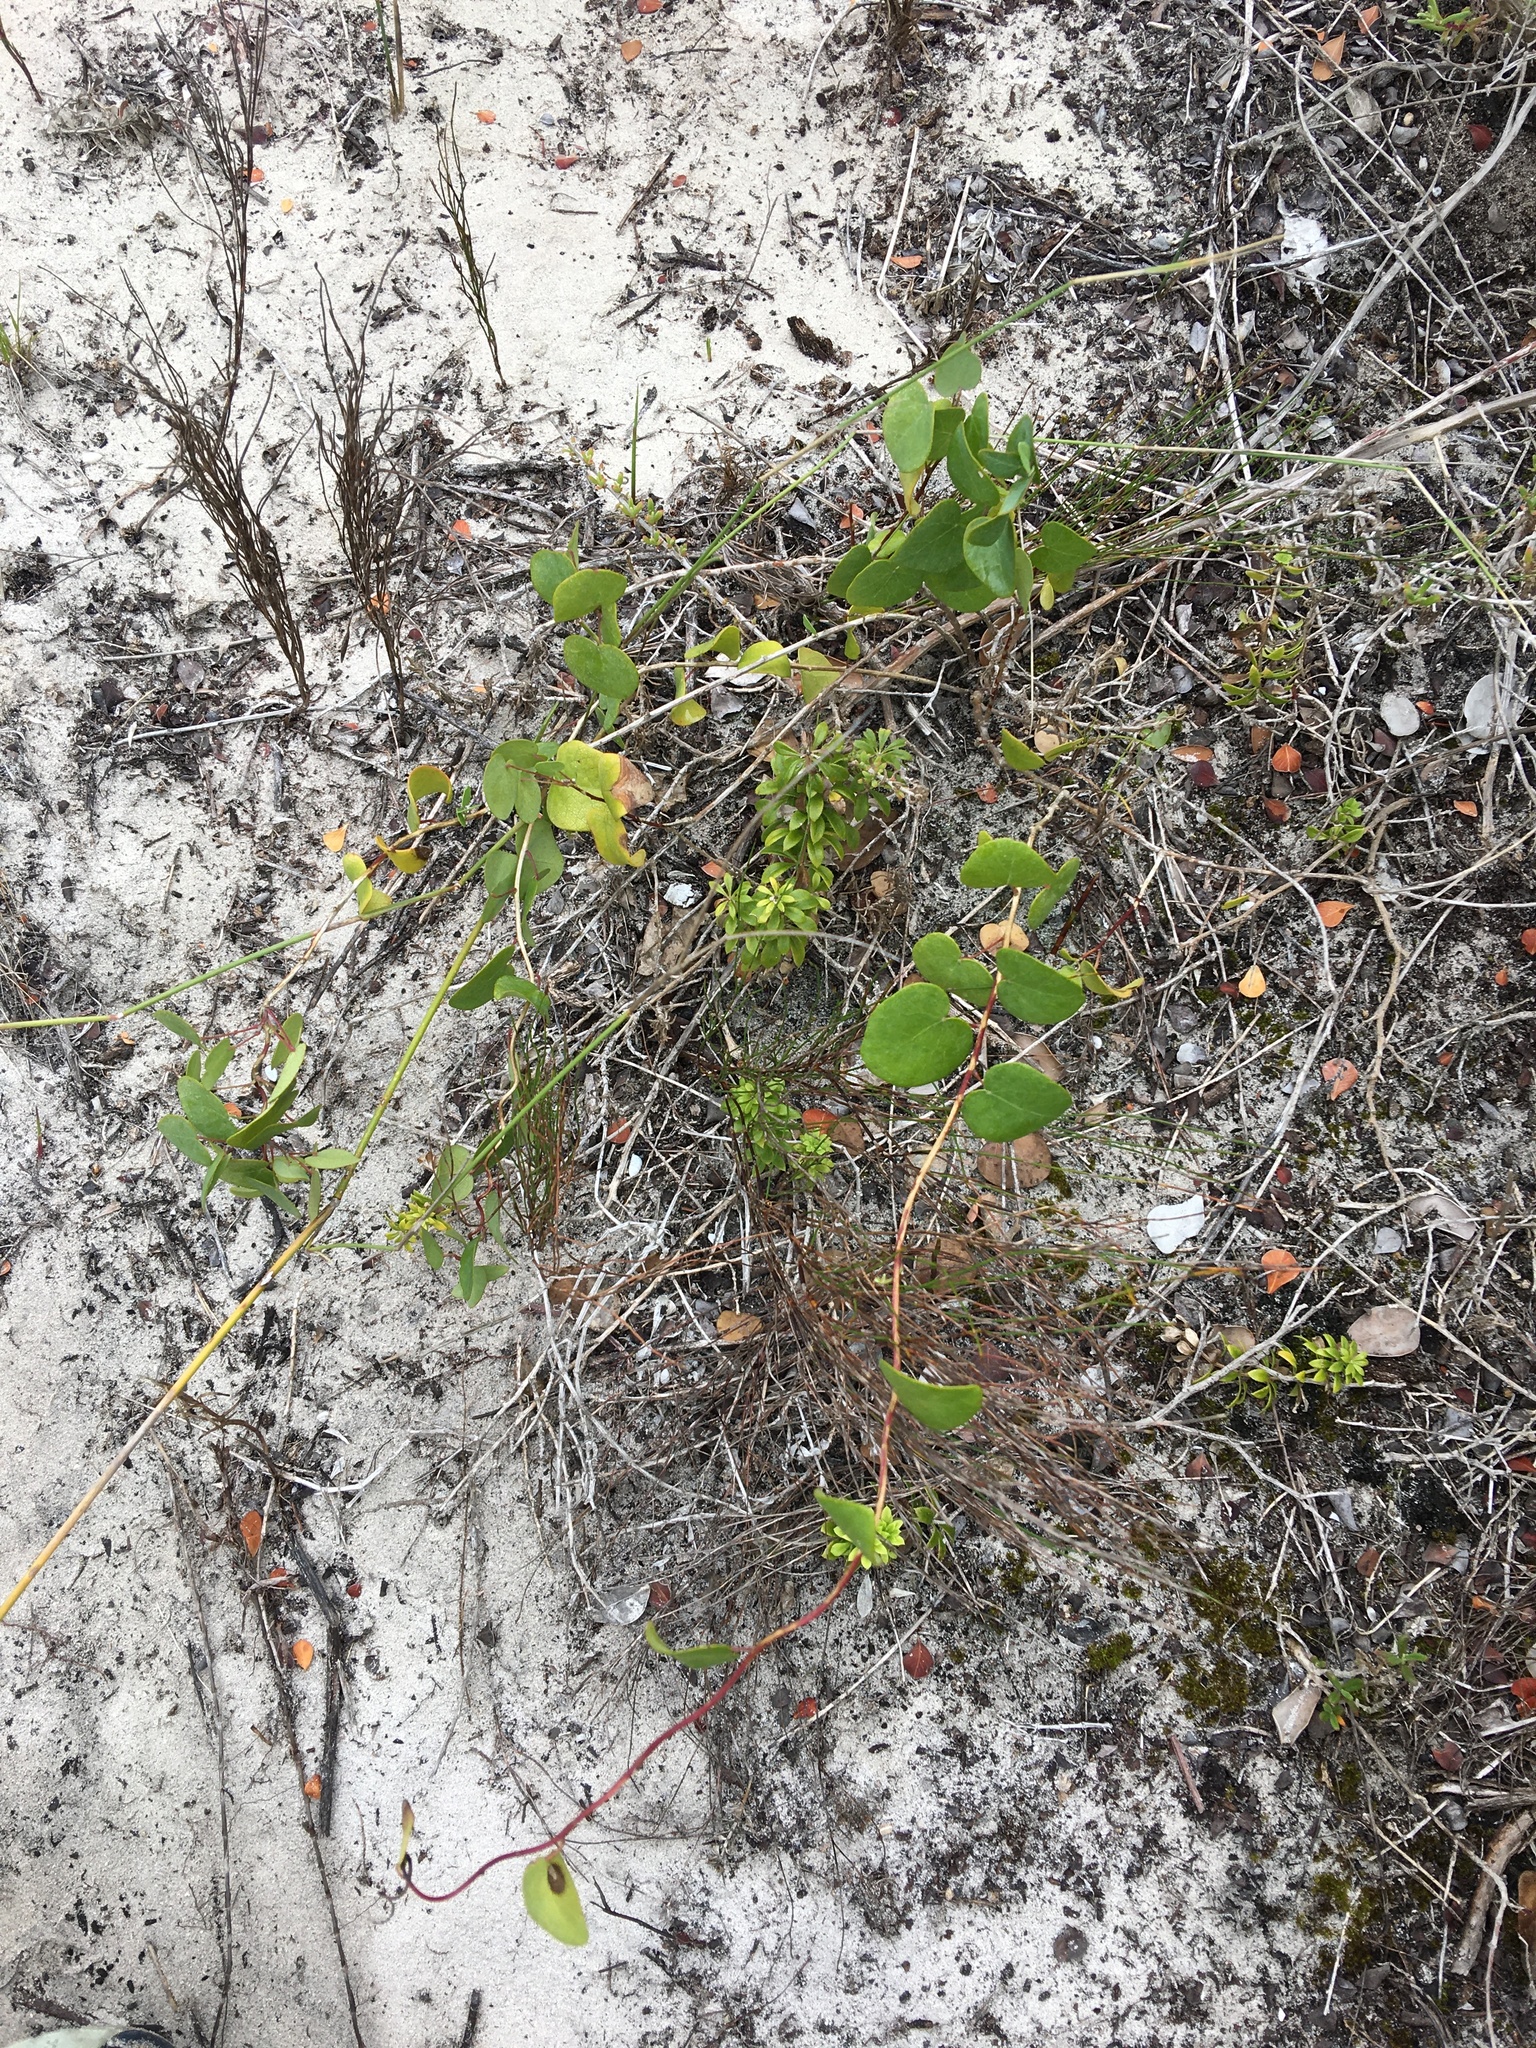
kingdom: Plantae
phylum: Tracheophyta
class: Magnoliopsida
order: Ranunculales
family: Menispermaceae
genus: Cissampelos
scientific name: Cissampelos capensis
